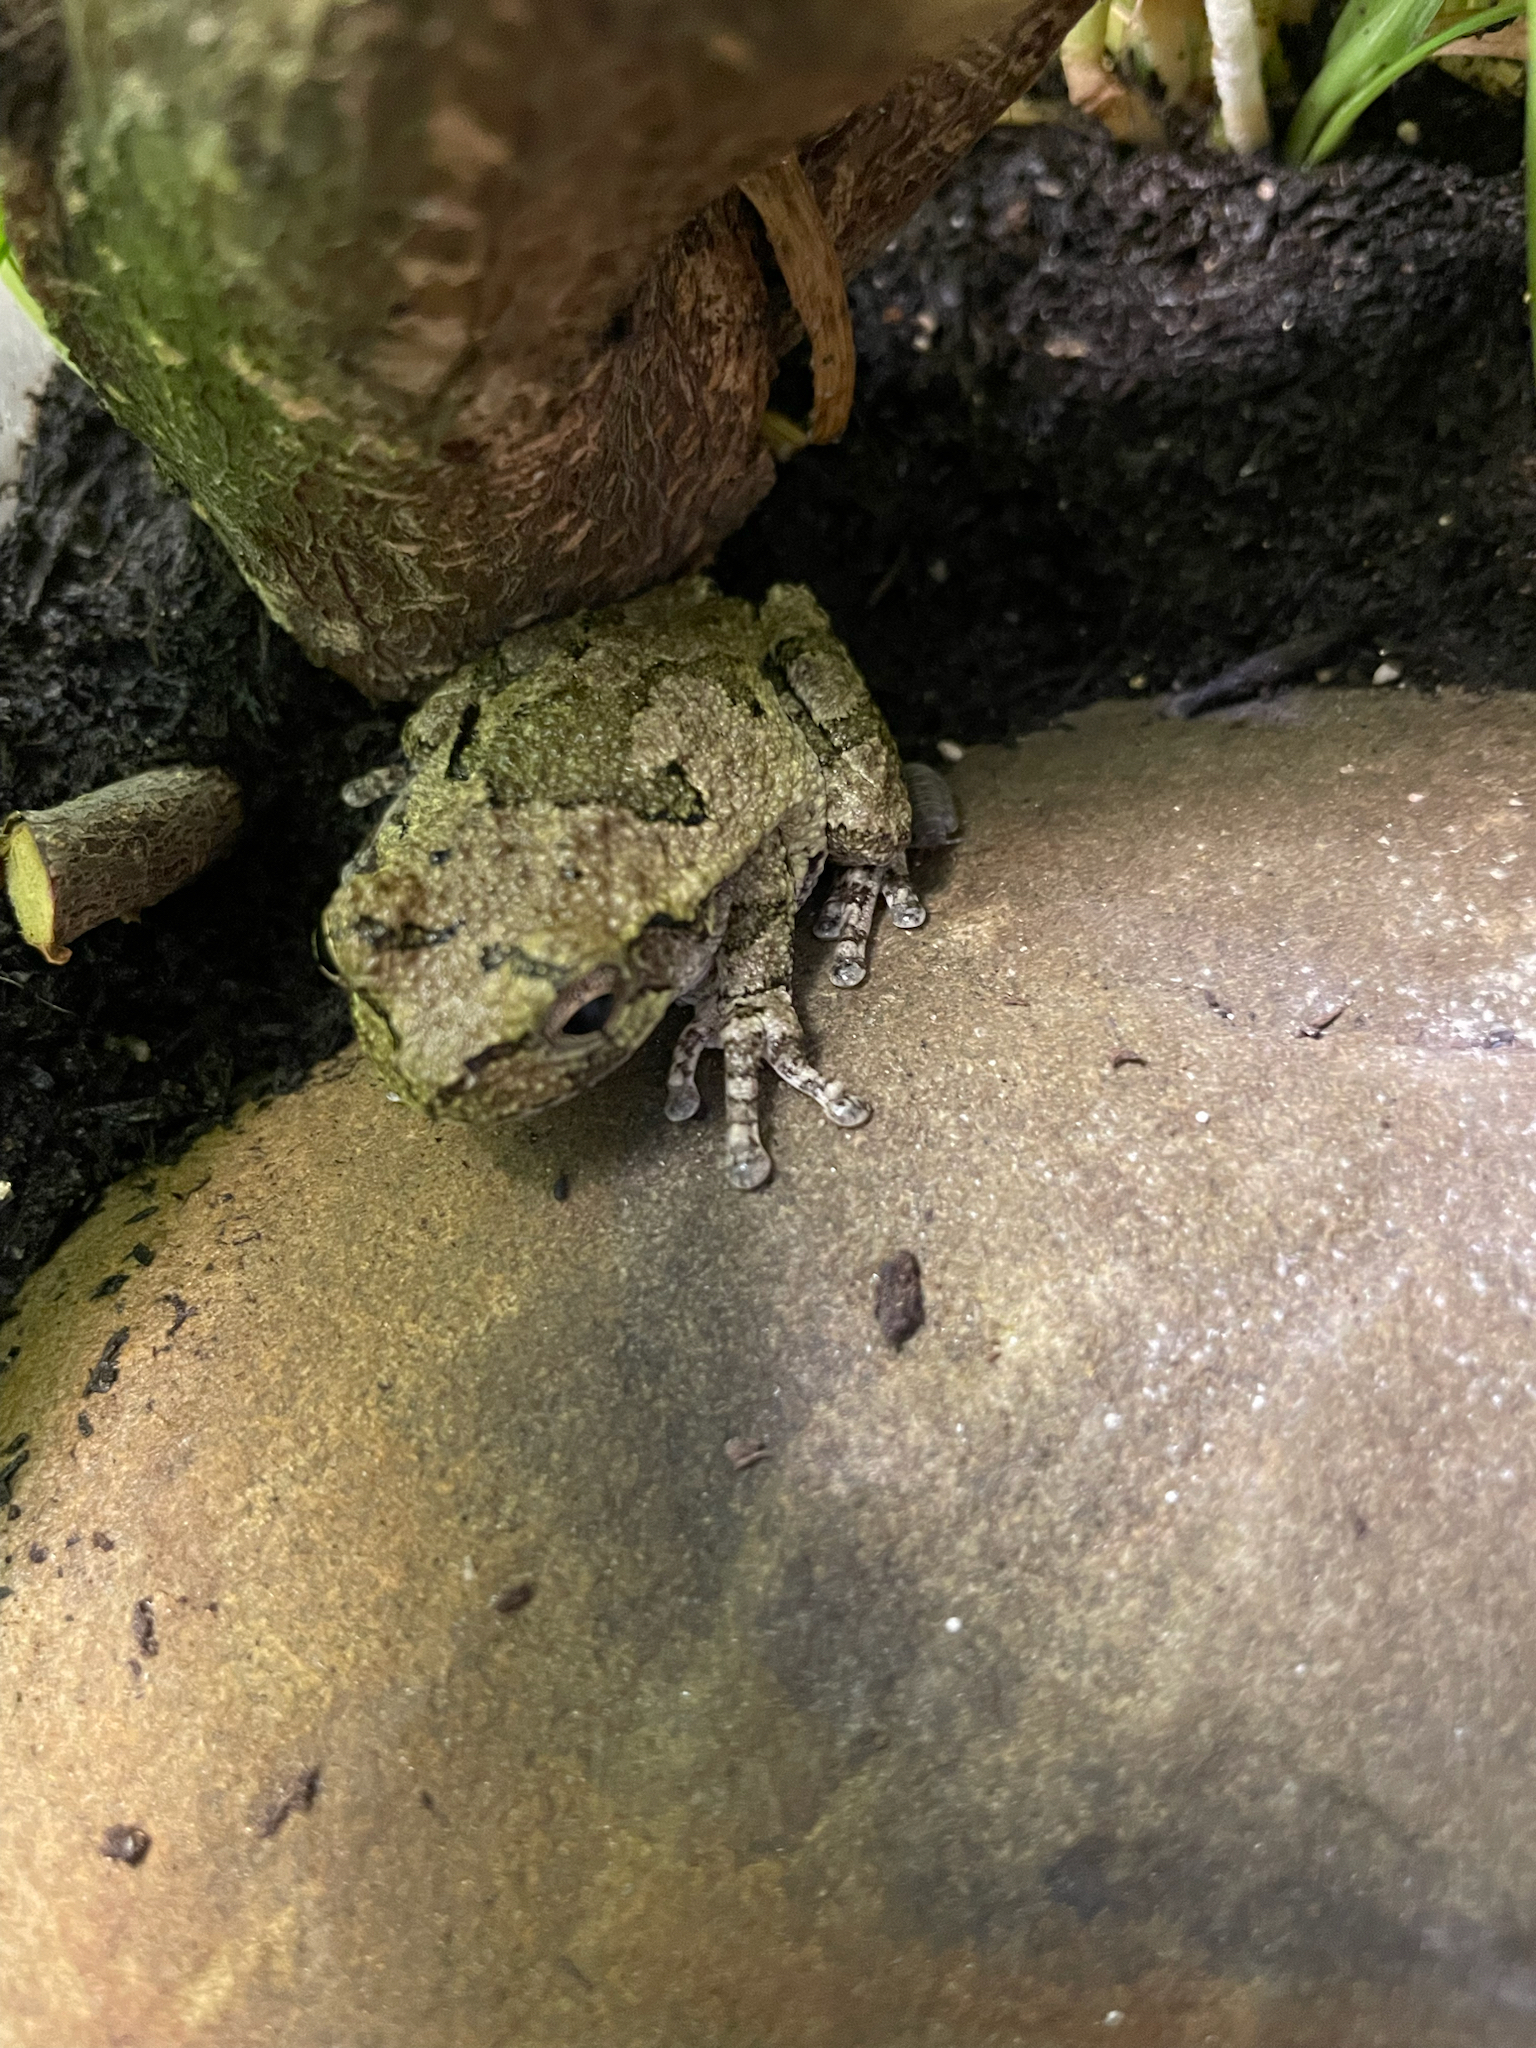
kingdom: Animalia
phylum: Chordata
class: Amphibia
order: Anura
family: Hylidae
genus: Dryophytes
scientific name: Dryophytes chrysoscelis
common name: Cope's gray treefrog
